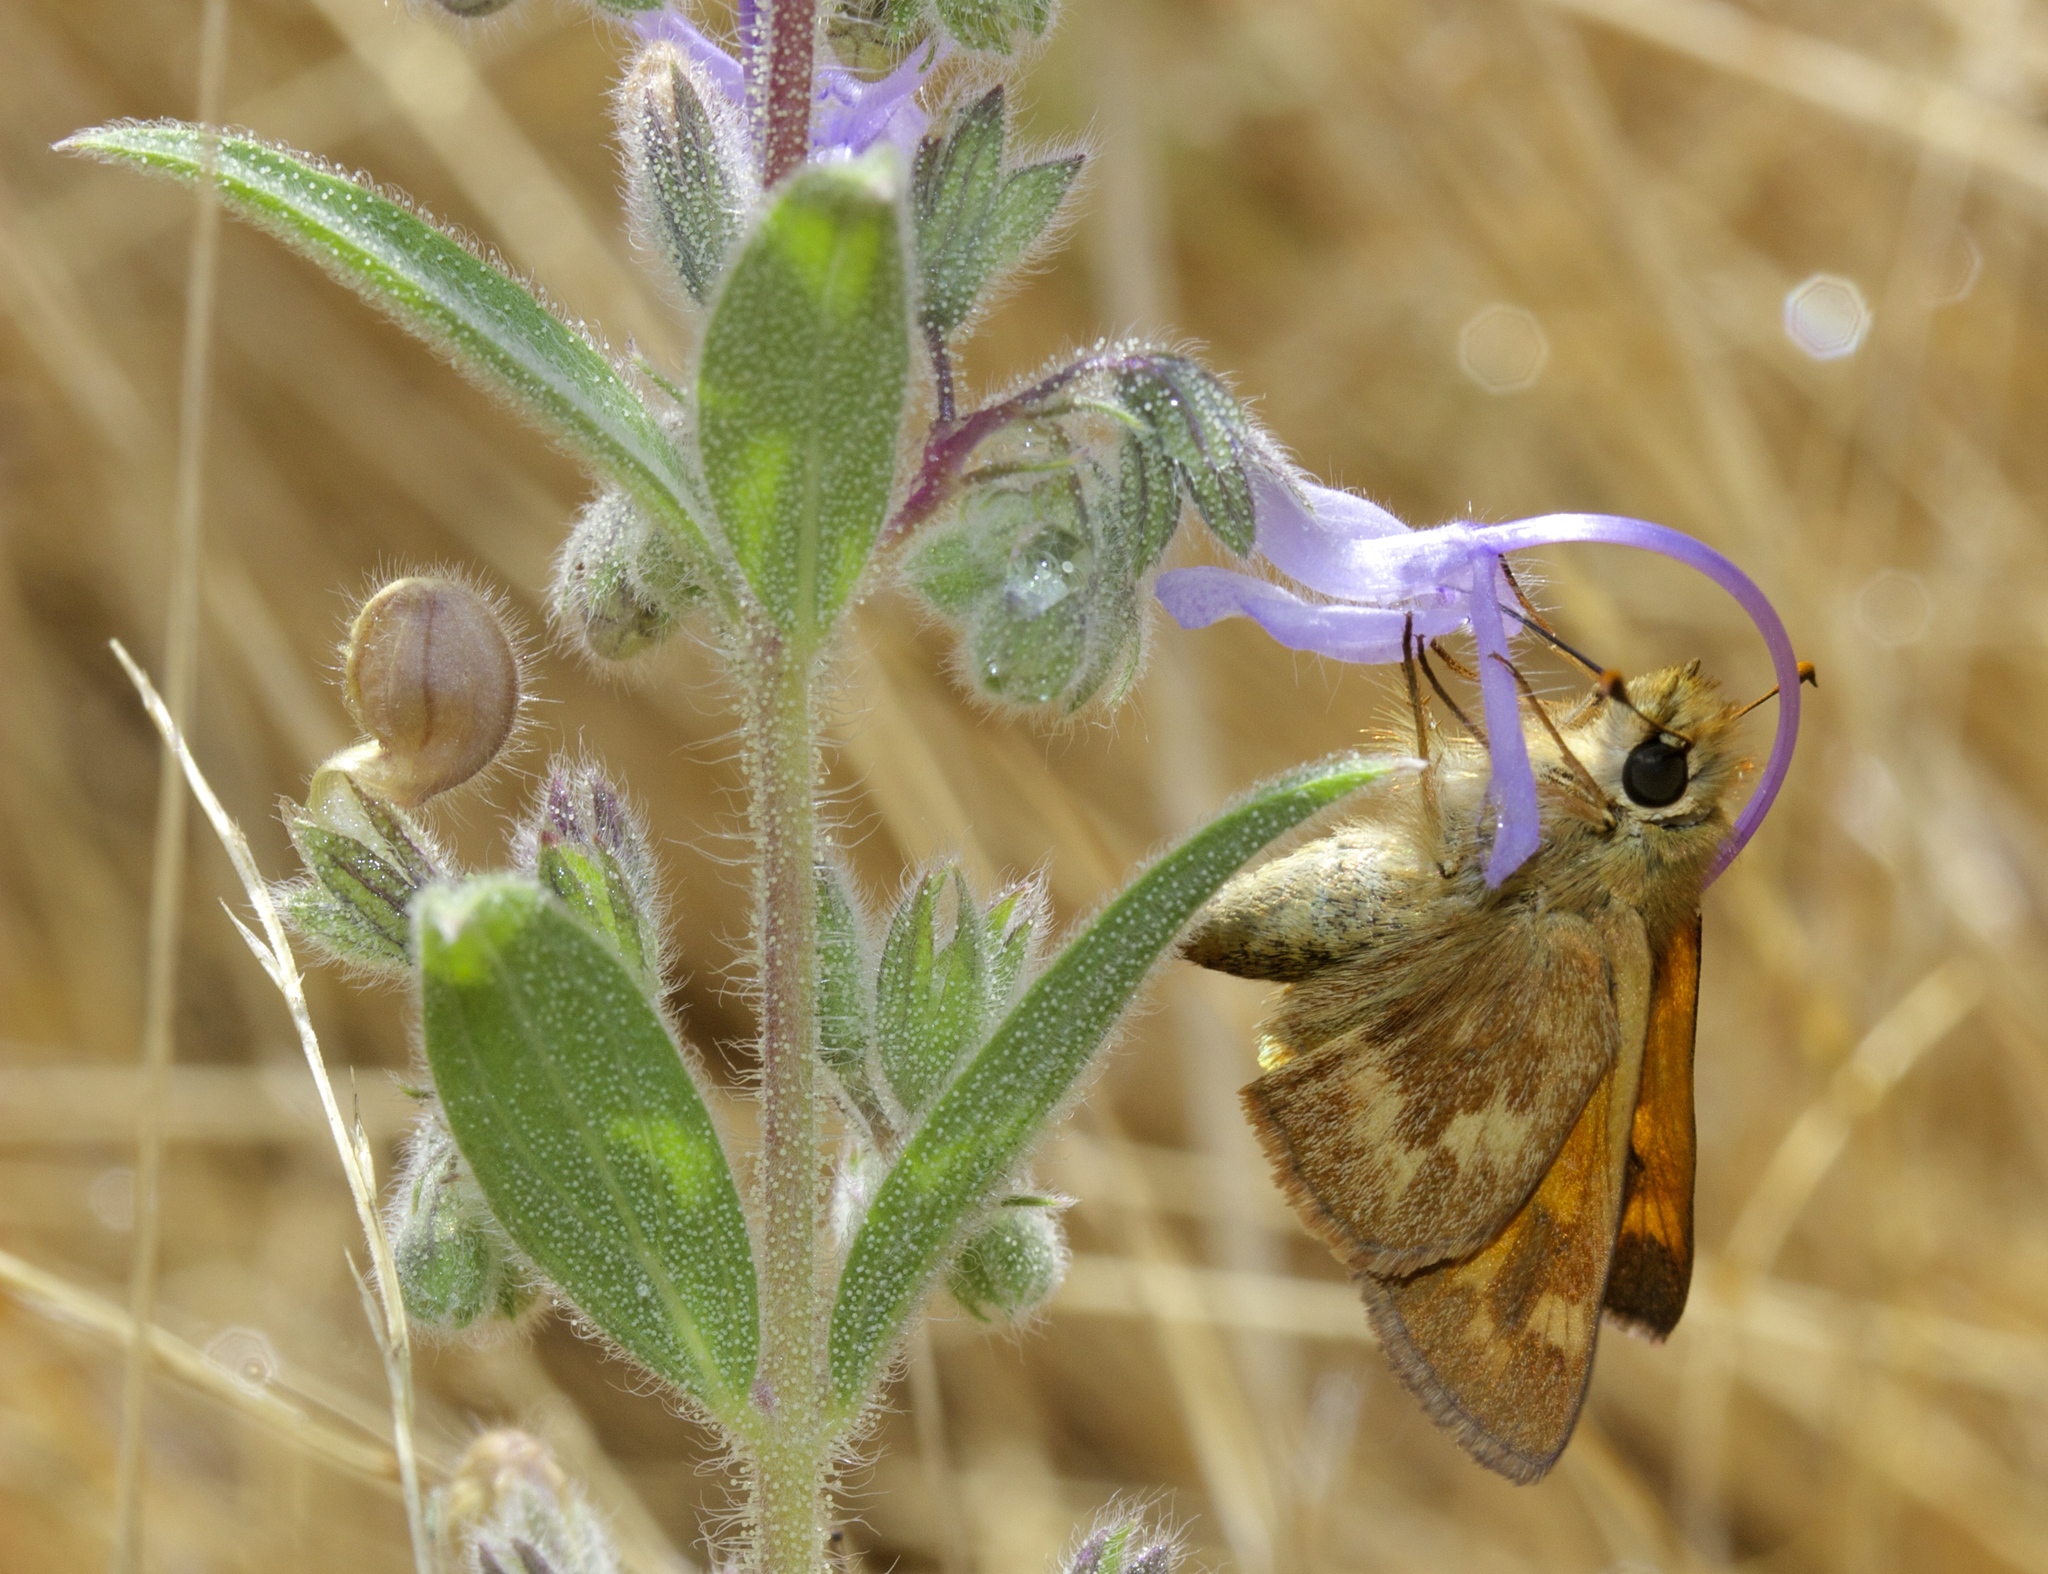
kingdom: Animalia
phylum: Arthropoda
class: Insecta
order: Lepidoptera
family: Hesperiidae
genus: Ochlodes
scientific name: Ochlodes sylvanoides
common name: Woodland skipper
